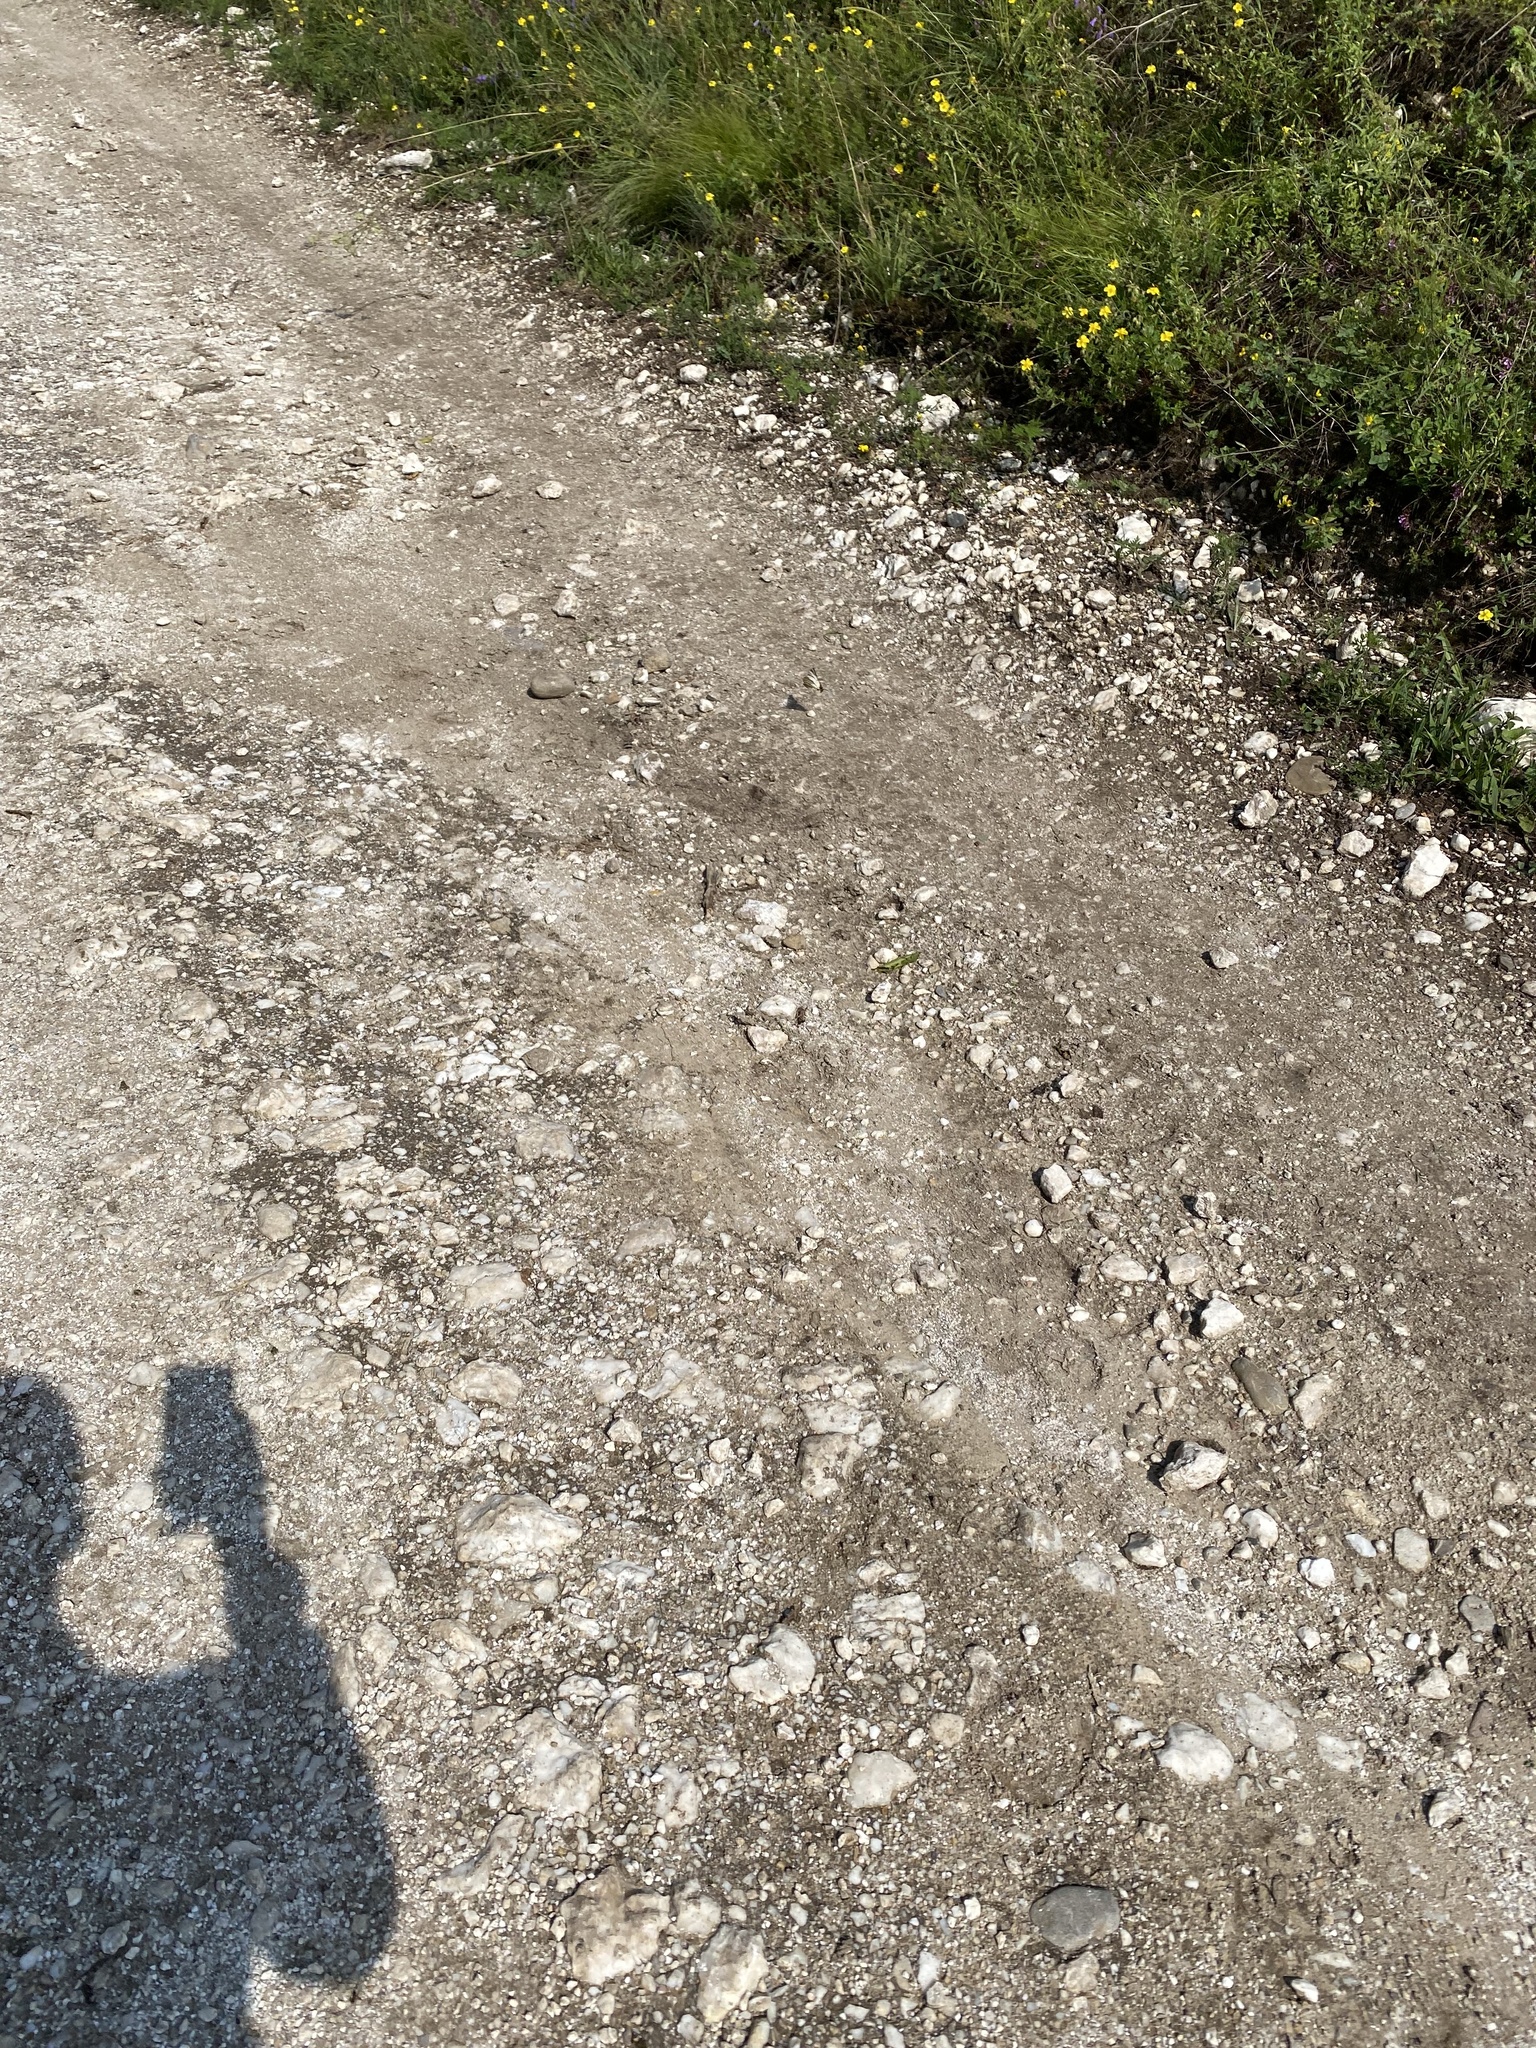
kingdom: Animalia
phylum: Arthropoda
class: Insecta
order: Lepidoptera
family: Papilionidae
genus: Iphiclides
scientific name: Iphiclides podalirius
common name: Scarce swallowtail
